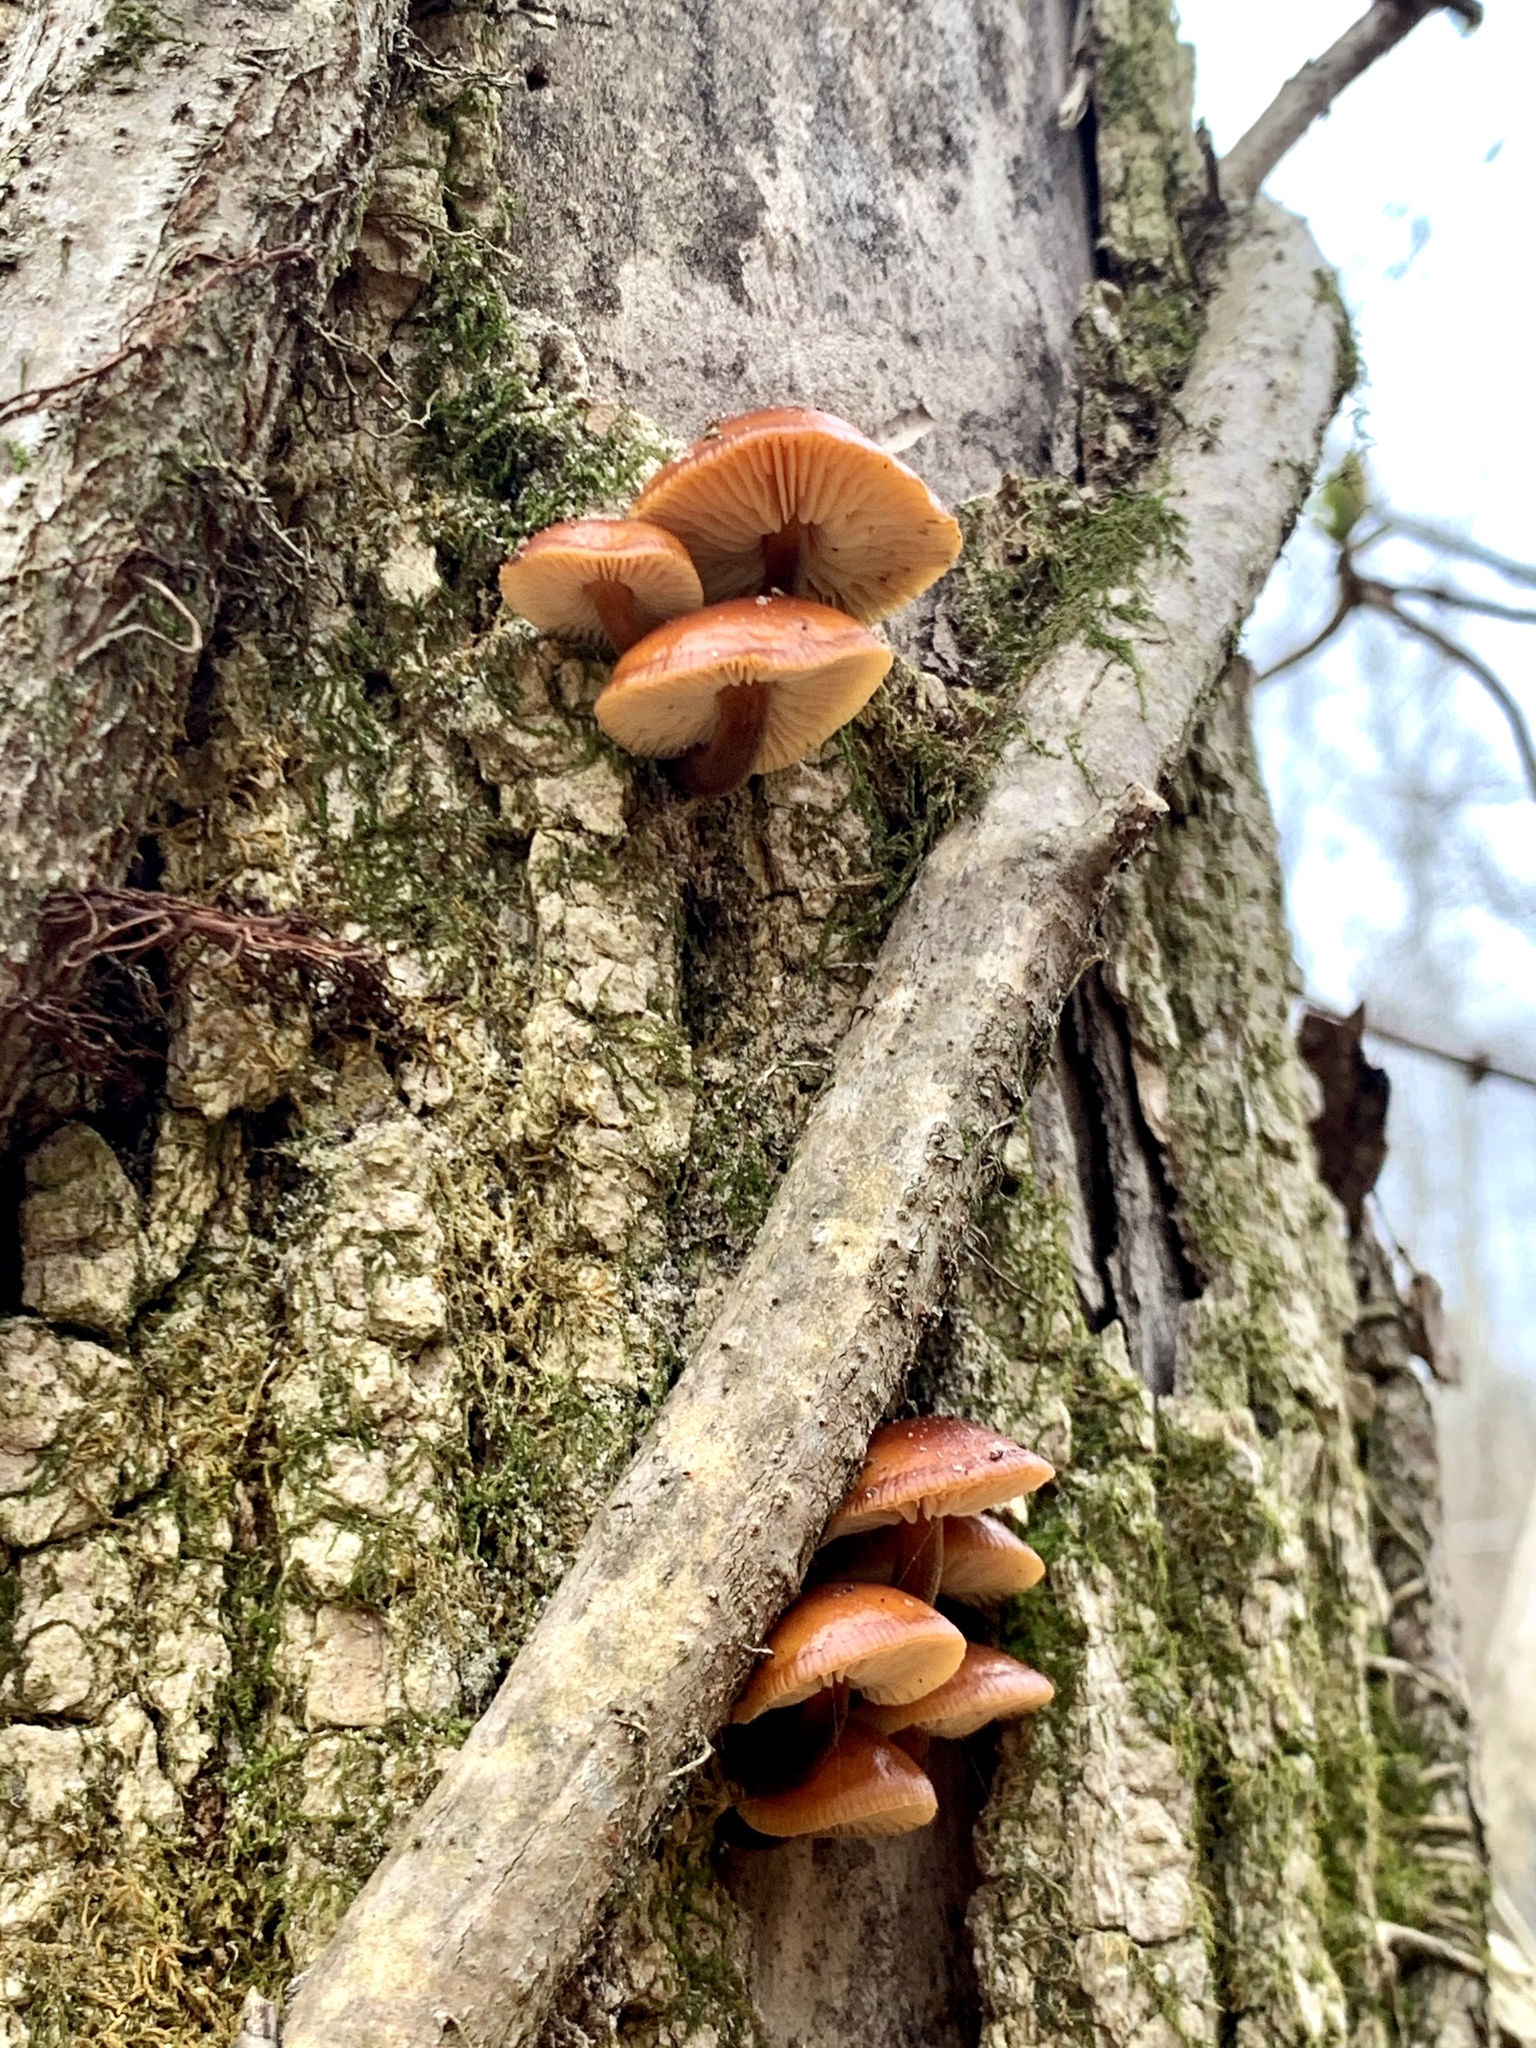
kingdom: Fungi
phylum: Basidiomycota
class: Agaricomycetes
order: Agaricales
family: Physalacriaceae
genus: Flammulina
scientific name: Flammulina velutipes
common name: Velvet shank
